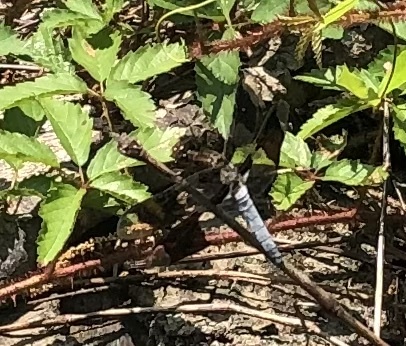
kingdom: Animalia
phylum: Arthropoda
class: Insecta
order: Odonata
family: Libellulidae
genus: Plathemis
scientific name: Plathemis lydia
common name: Common whitetail
